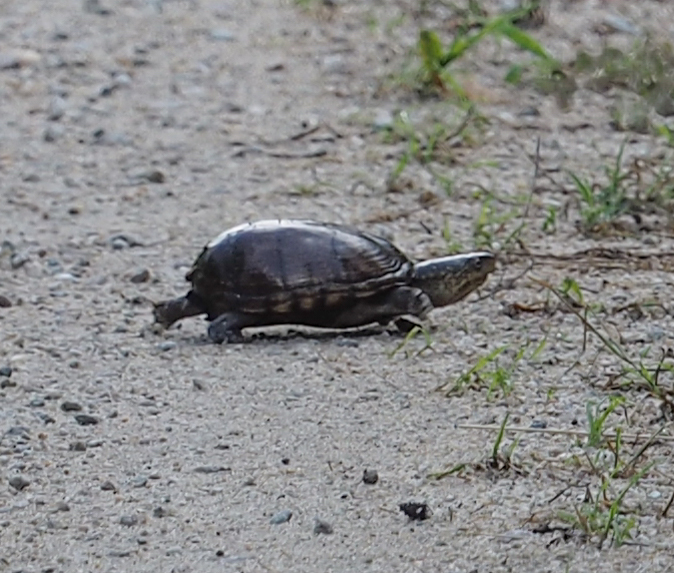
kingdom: Animalia
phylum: Chordata
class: Testudines
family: Kinosternidae
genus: Kinosternon
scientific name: Kinosternon subrubrum
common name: Eastern mud turtle
